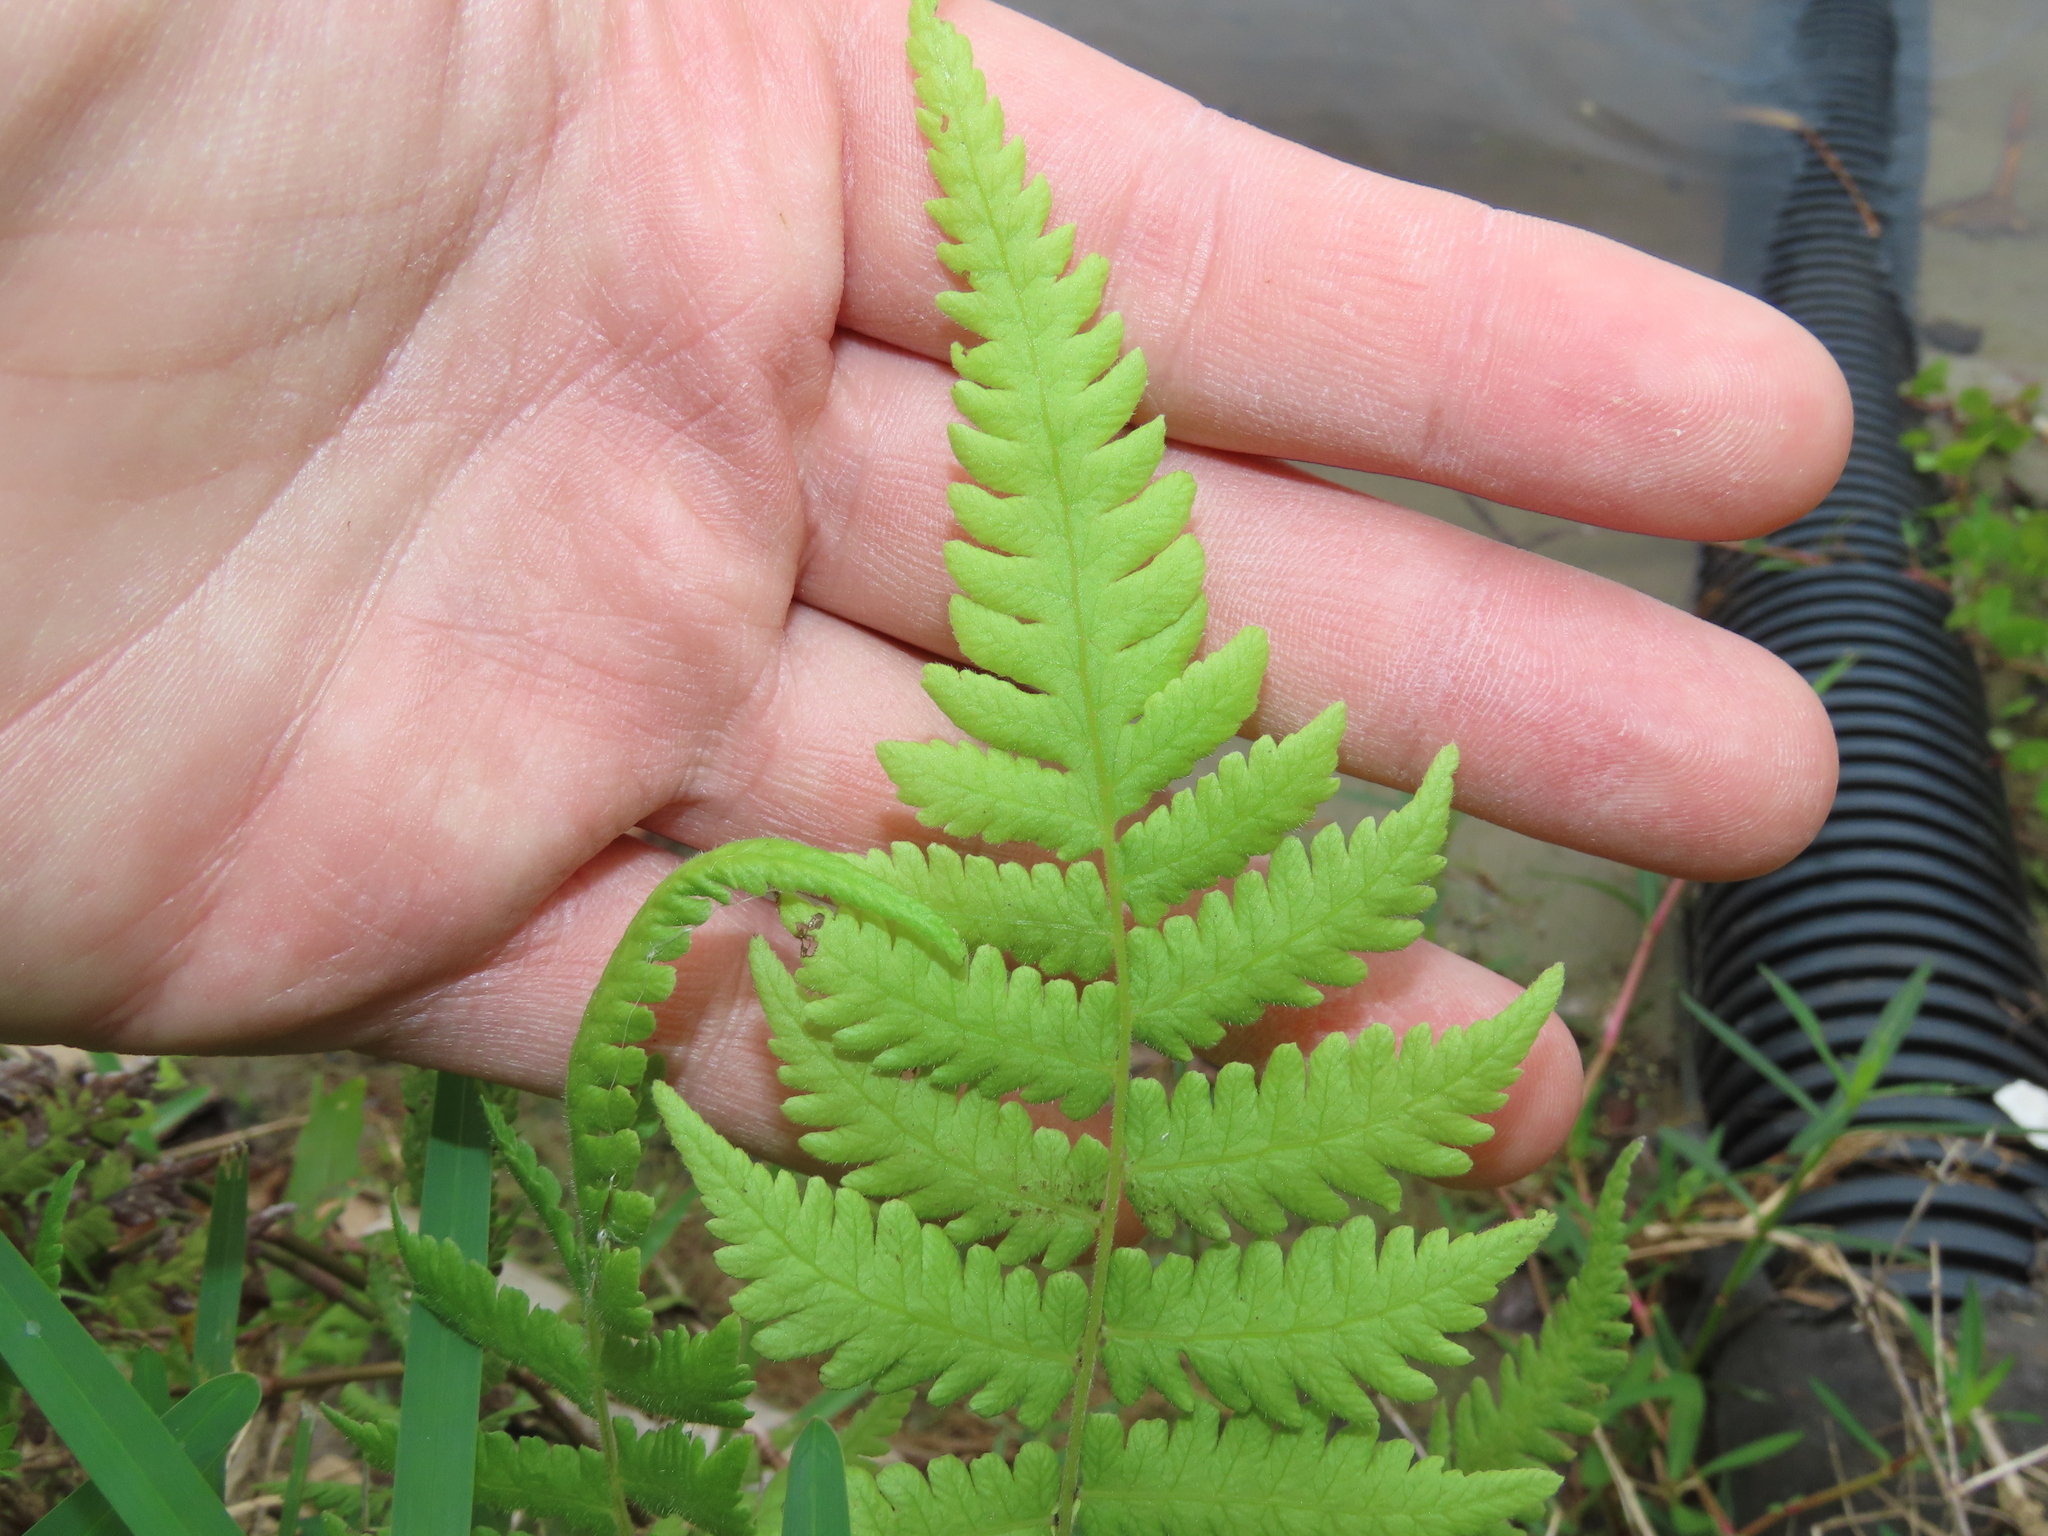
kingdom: Plantae
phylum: Tracheophyta
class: Polypodiopsida
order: Polypodiales
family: Thelypteridaceae
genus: Christella
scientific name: Christella dentata
